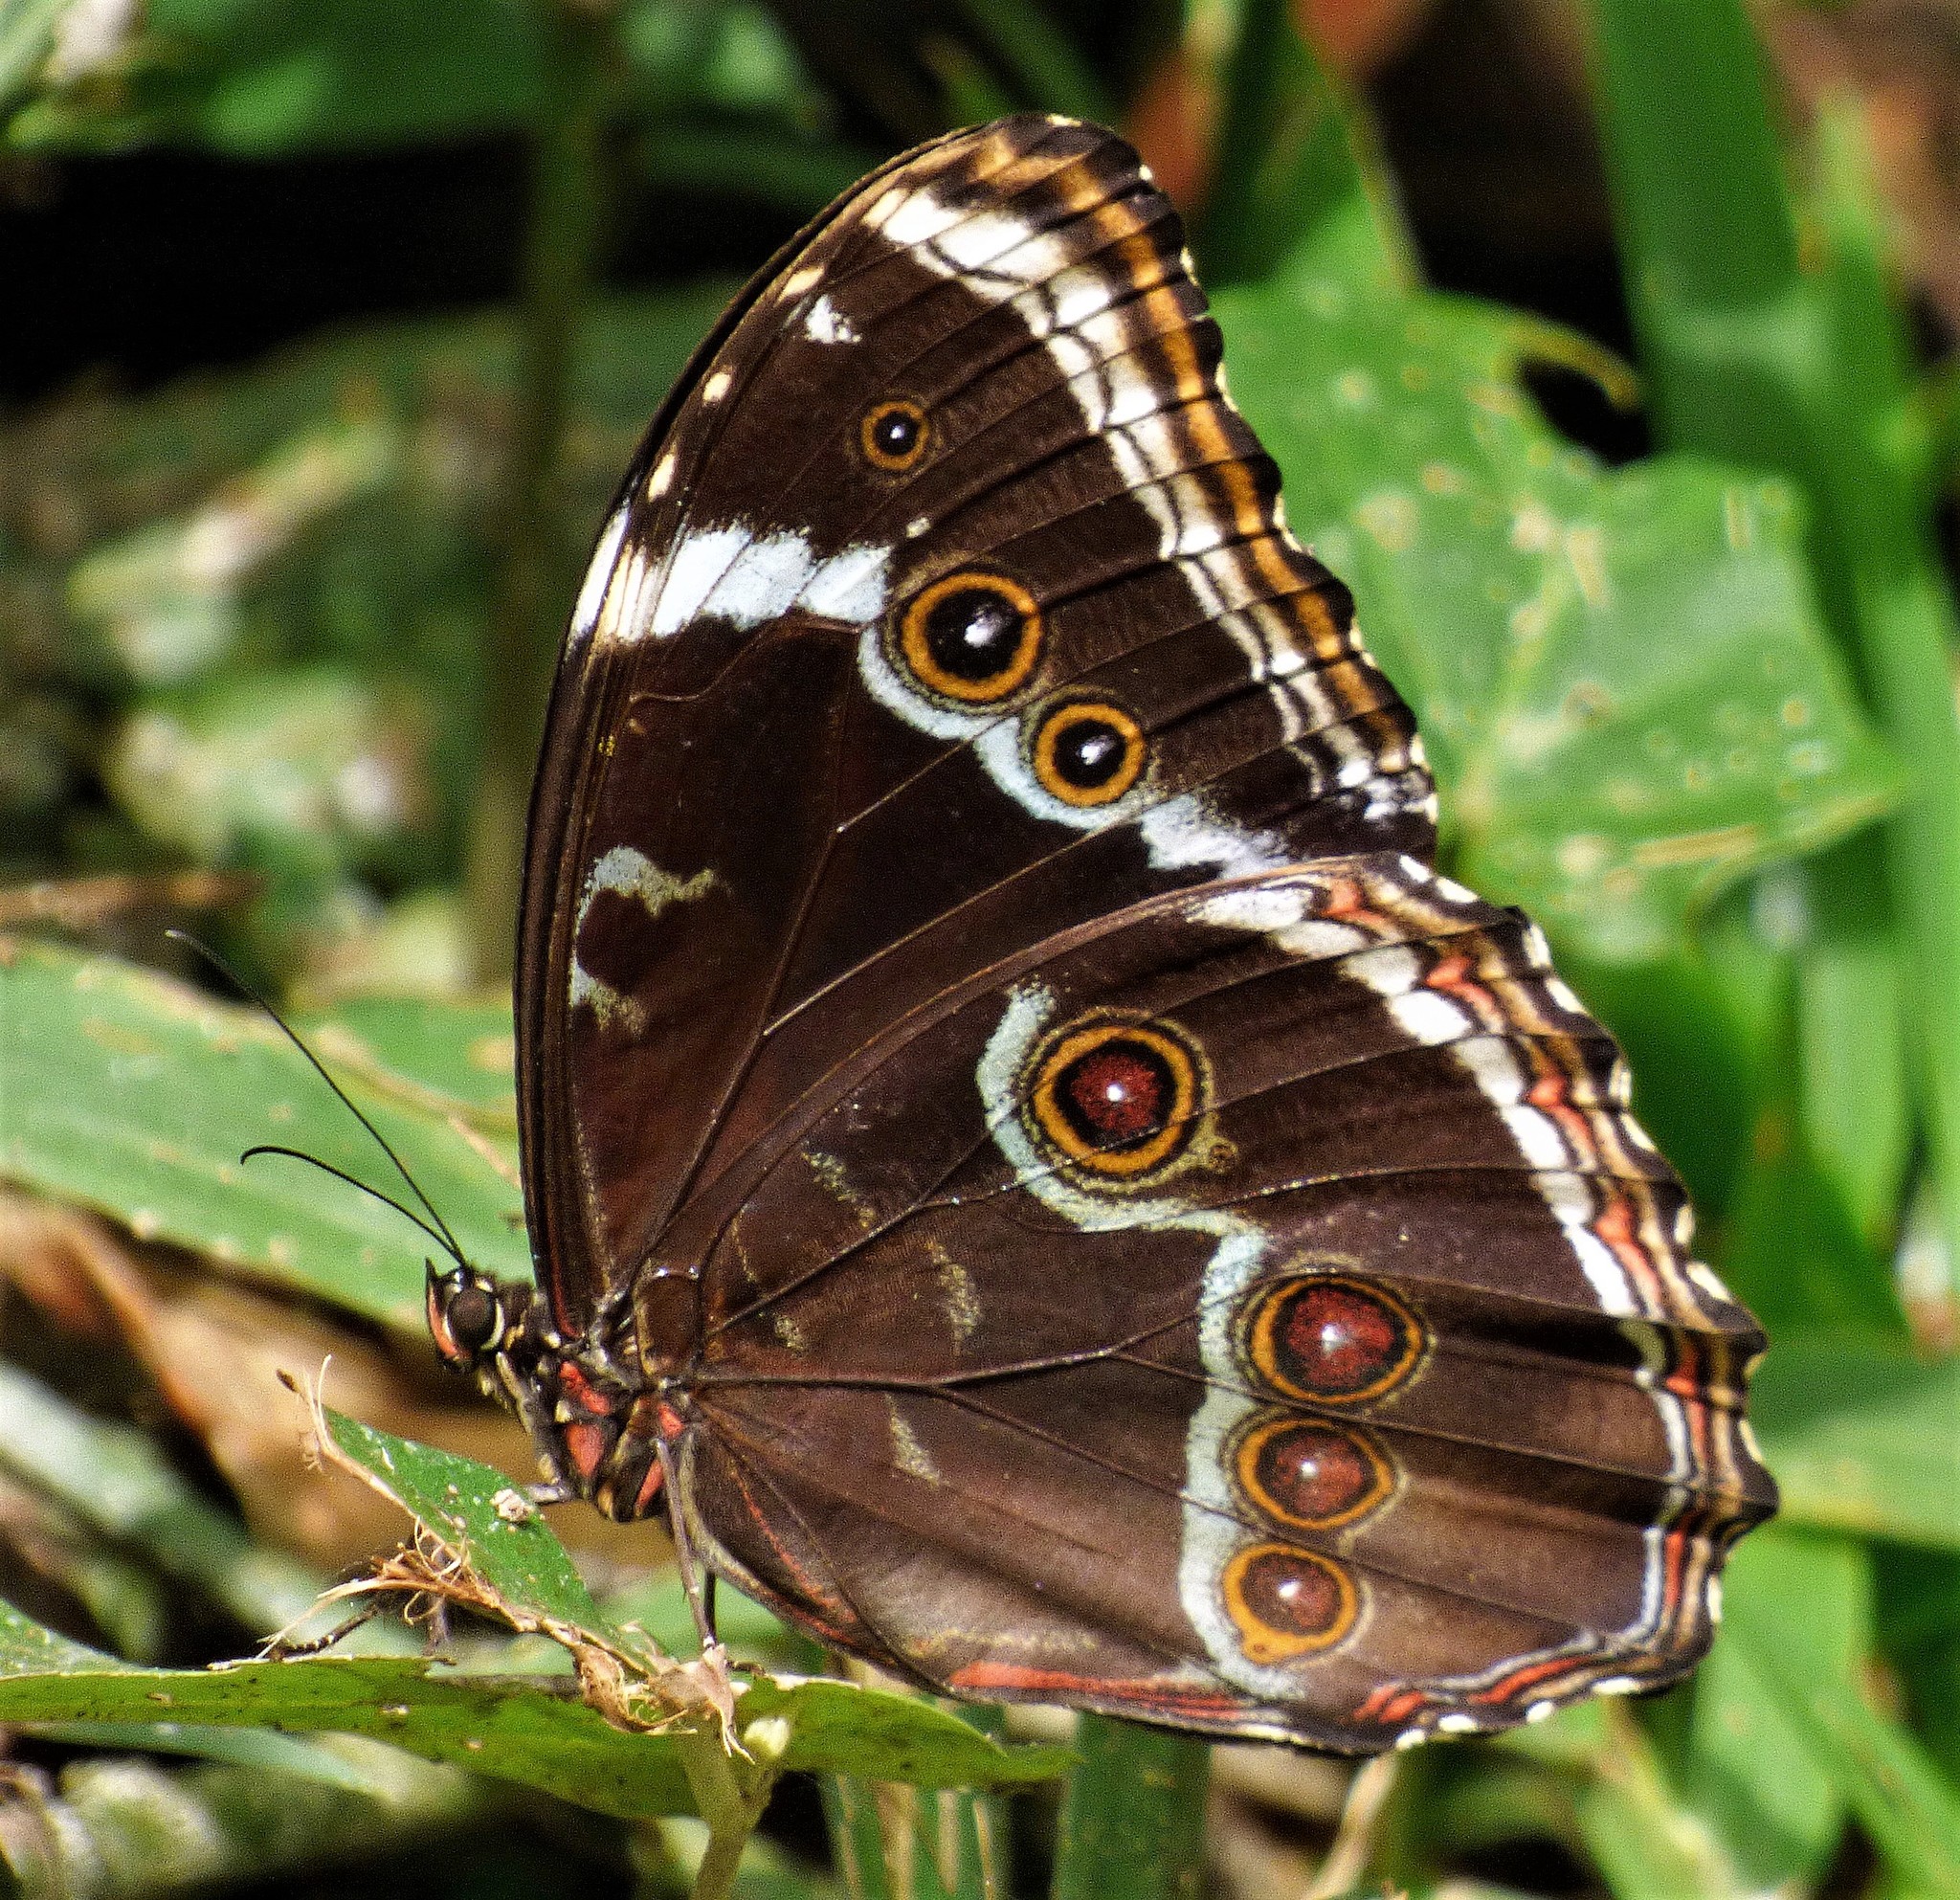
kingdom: Animalia
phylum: Arthropoda
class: Insecta
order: Lepidoptera
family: Nymphalidae
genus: Morpho
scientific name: Morpho helenor
